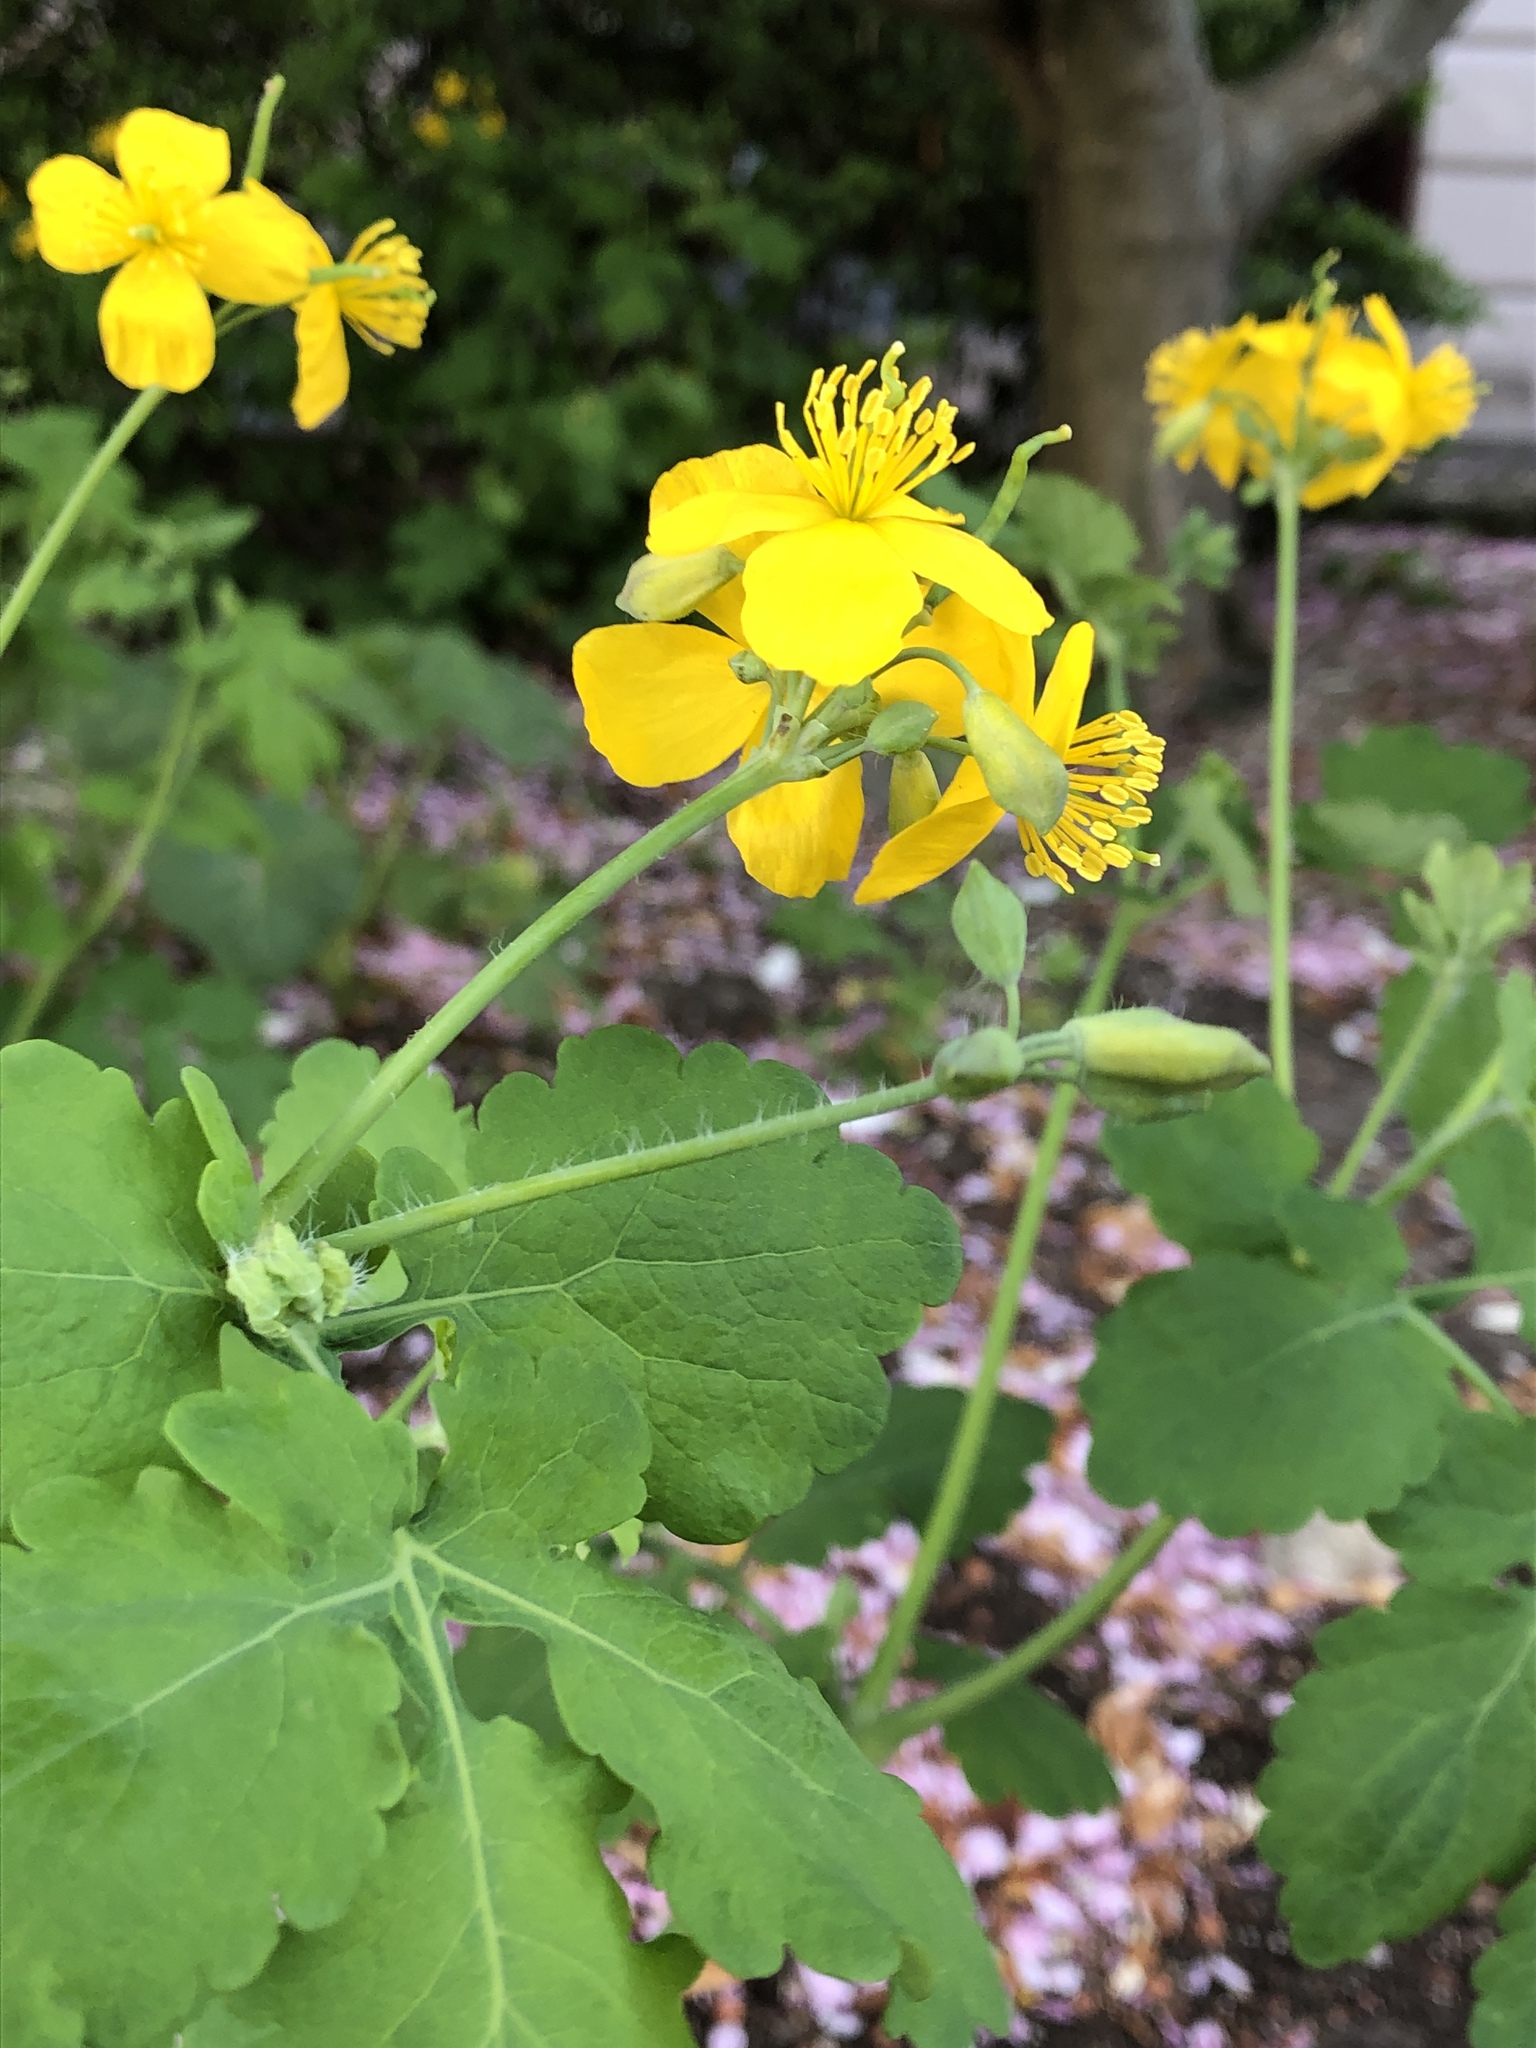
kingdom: Plantae
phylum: Tracheophyta
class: Magnoliopsida
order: Ranunculales
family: Papaveraceae
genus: Chelidonium
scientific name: Chelidonium majus
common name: Greater celandine
